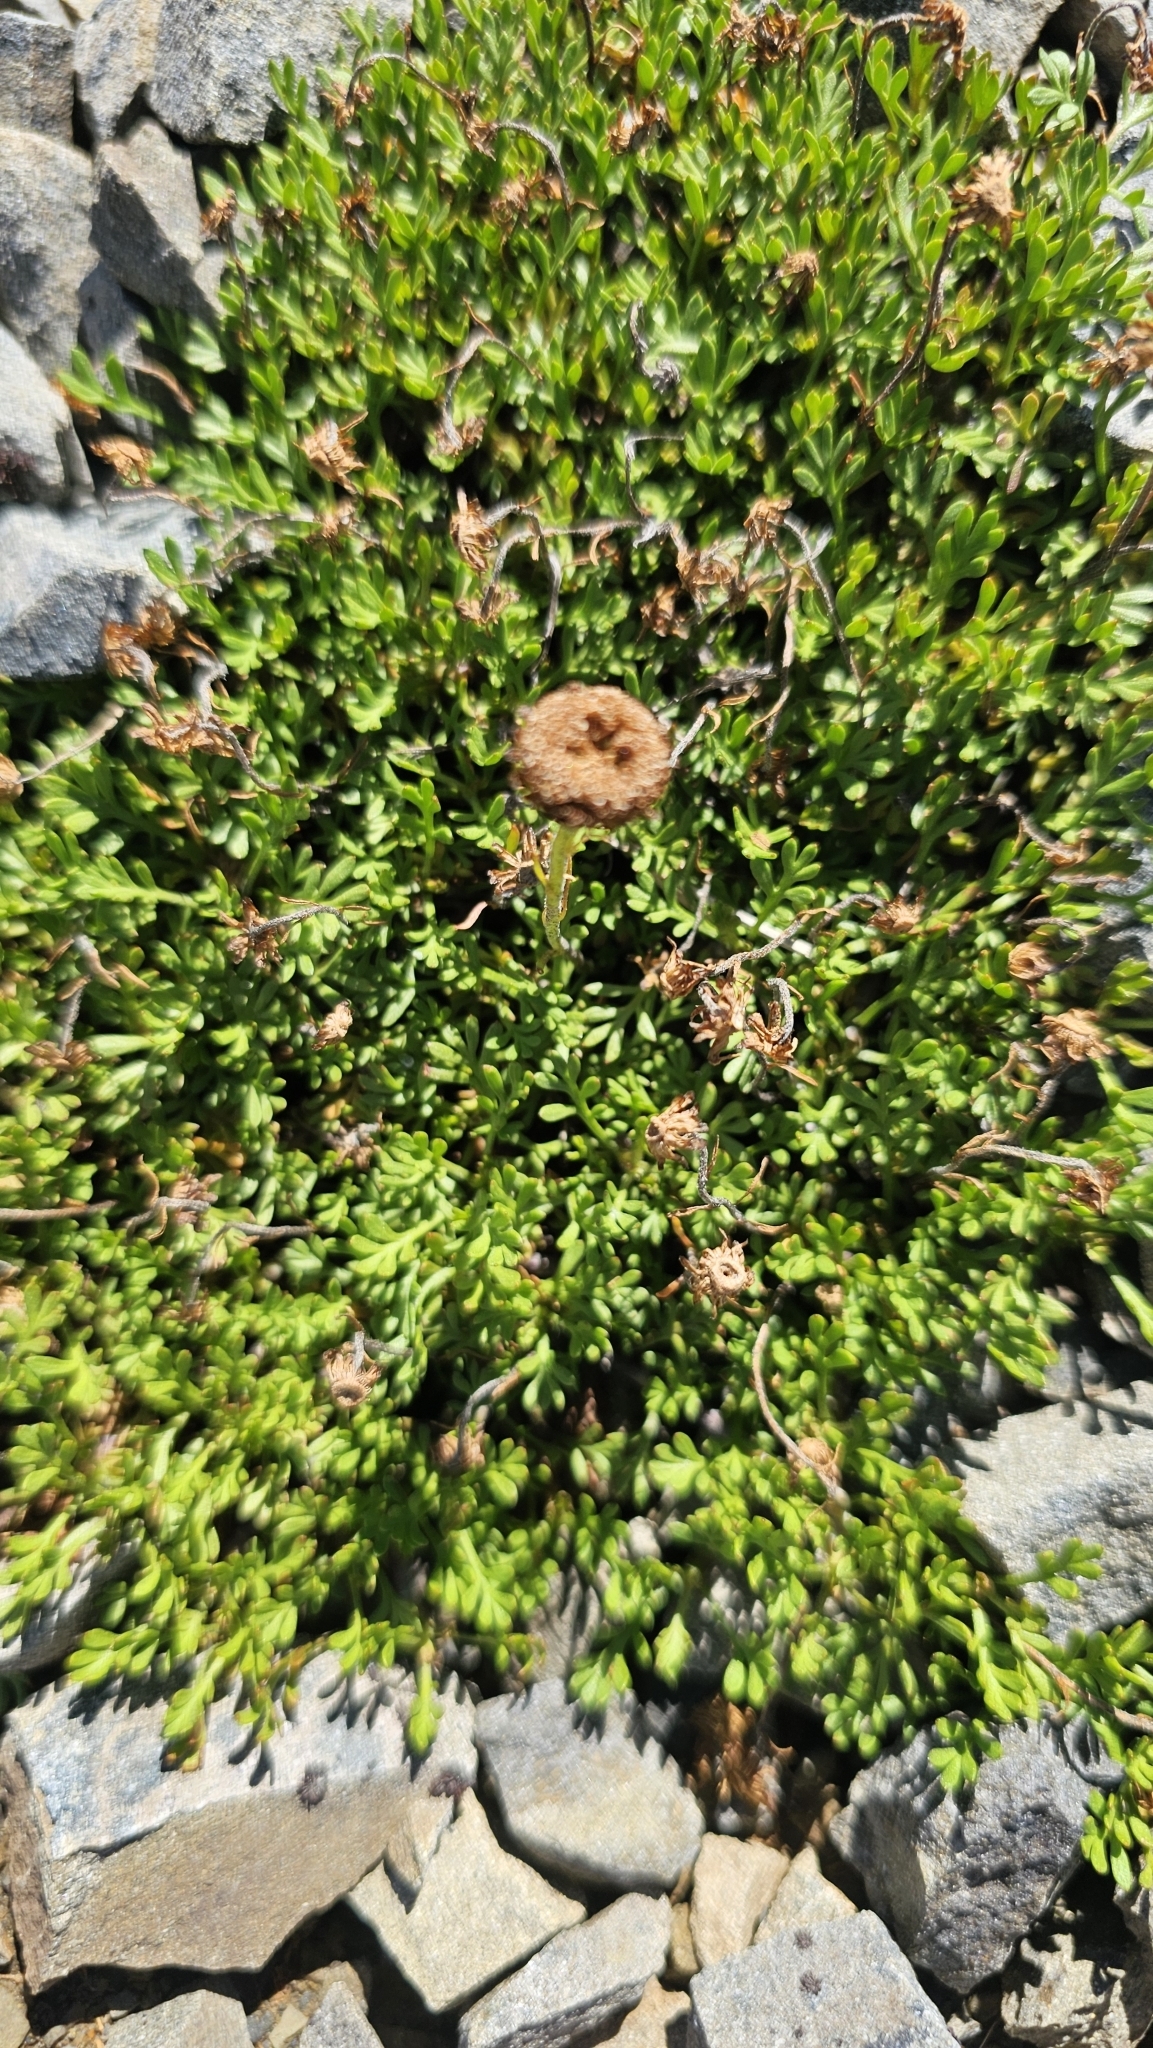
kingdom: Plantae
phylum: Tracheophyta
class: Magnoliopsida
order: Asterales
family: Asteraceae
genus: Leptinella
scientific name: Leptinella pyrethrifolia
